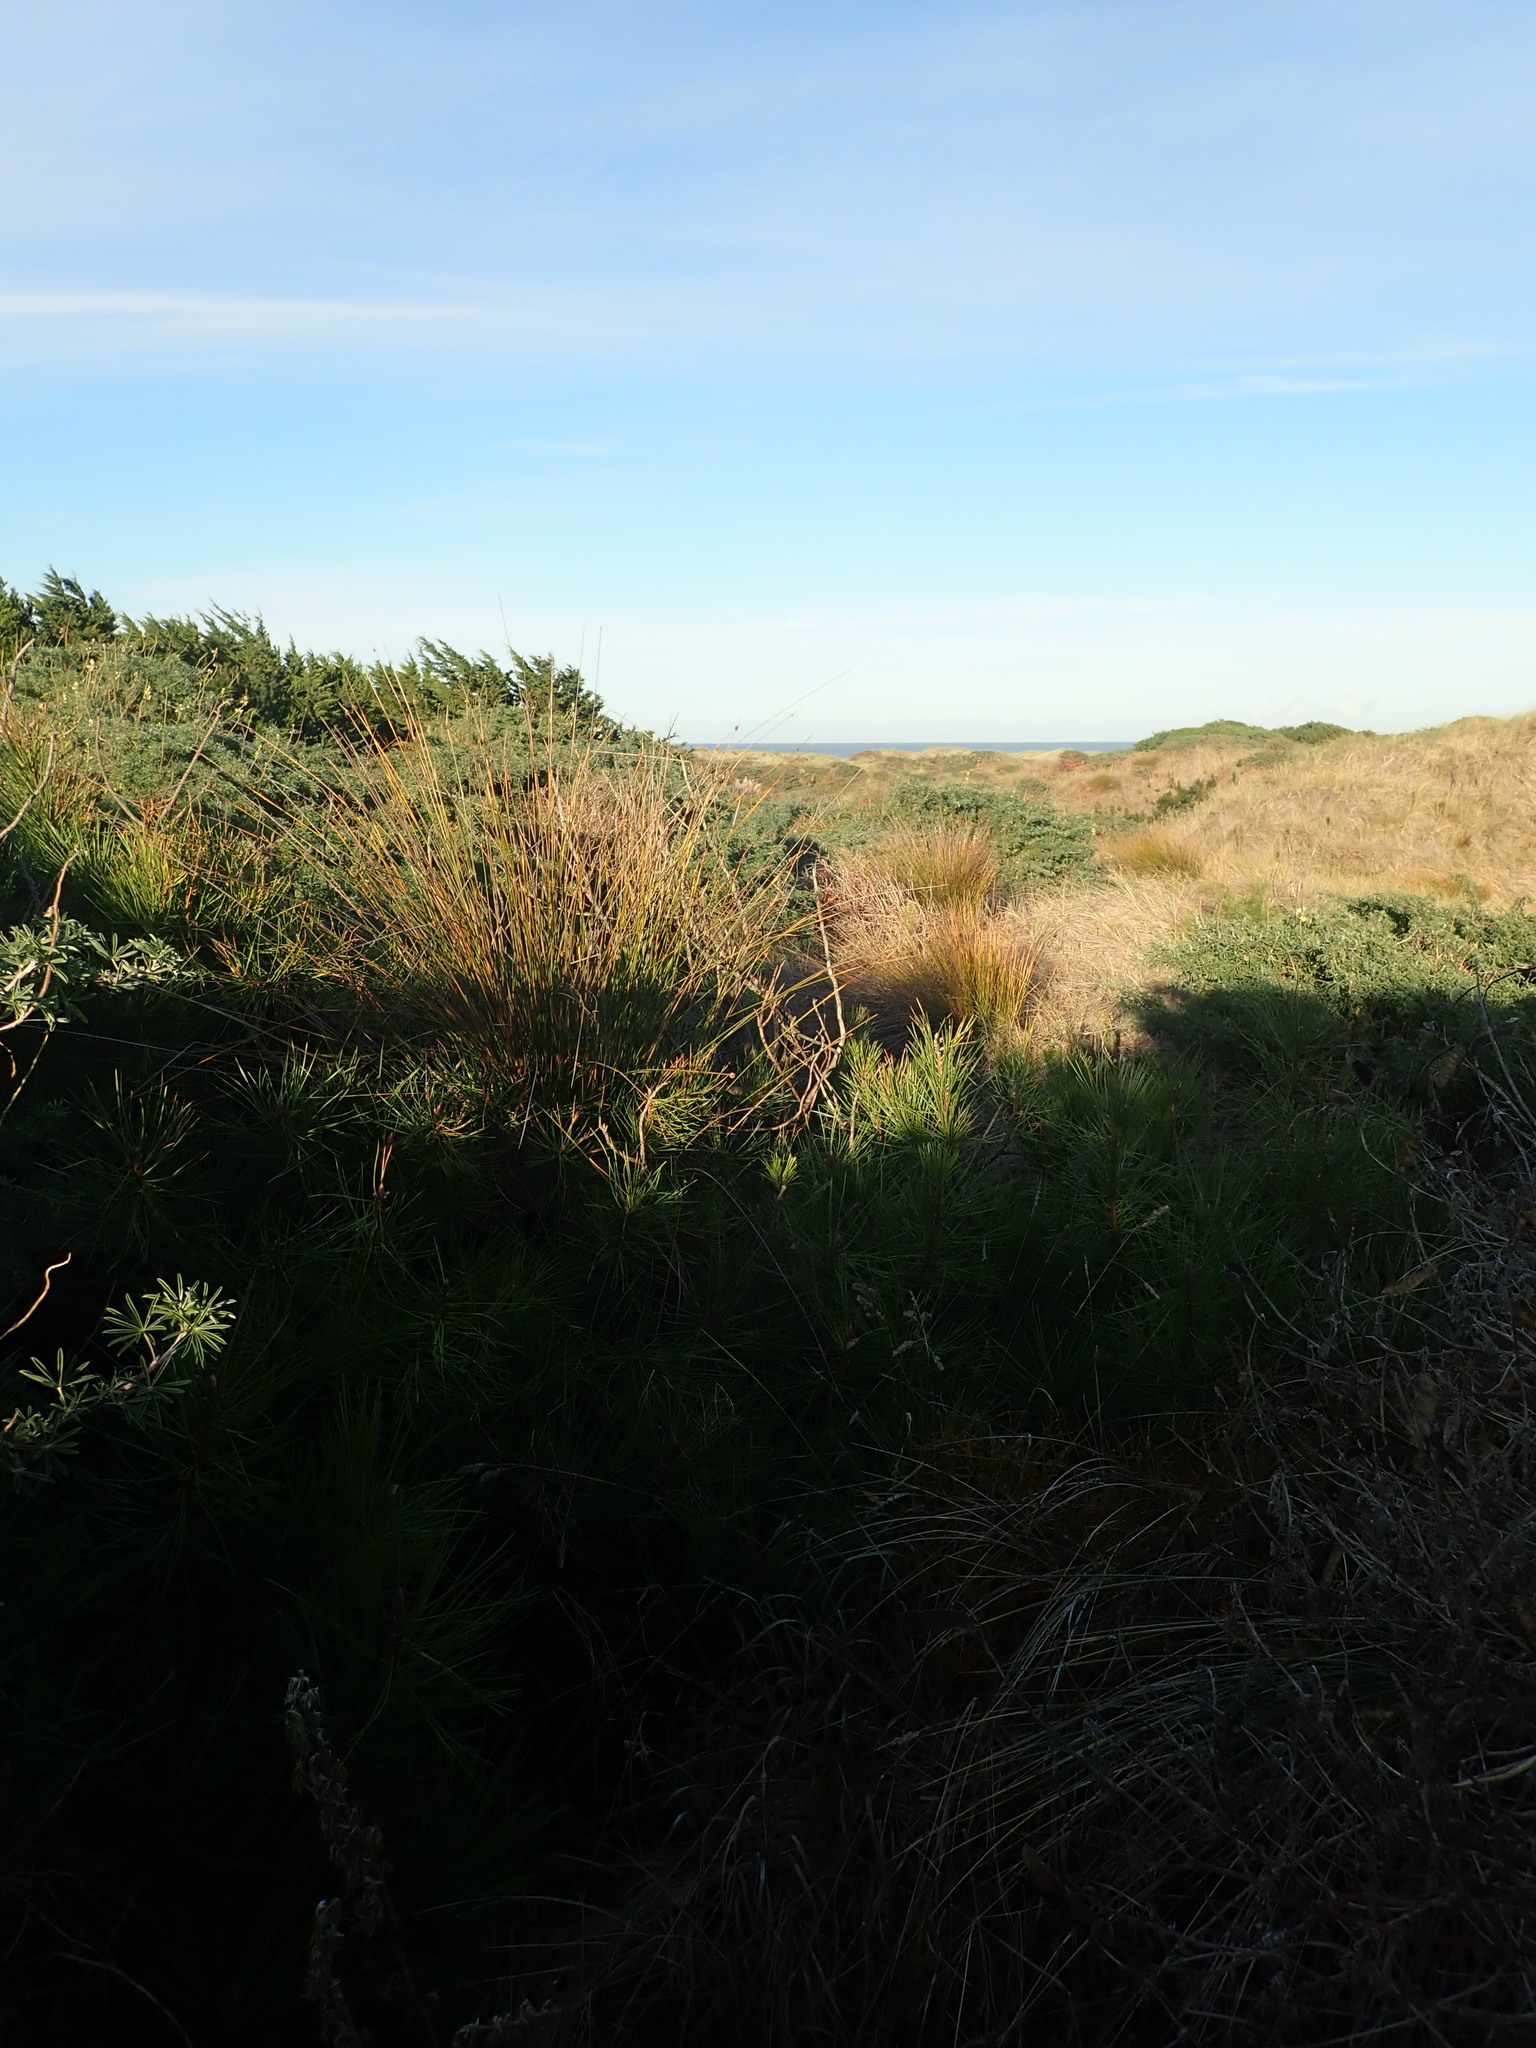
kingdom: Plantae
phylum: Tracheophyta
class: Pinopsida
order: Pinales
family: Pinaceae
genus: Pinus
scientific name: Pinus pinaster
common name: Maritime pine
